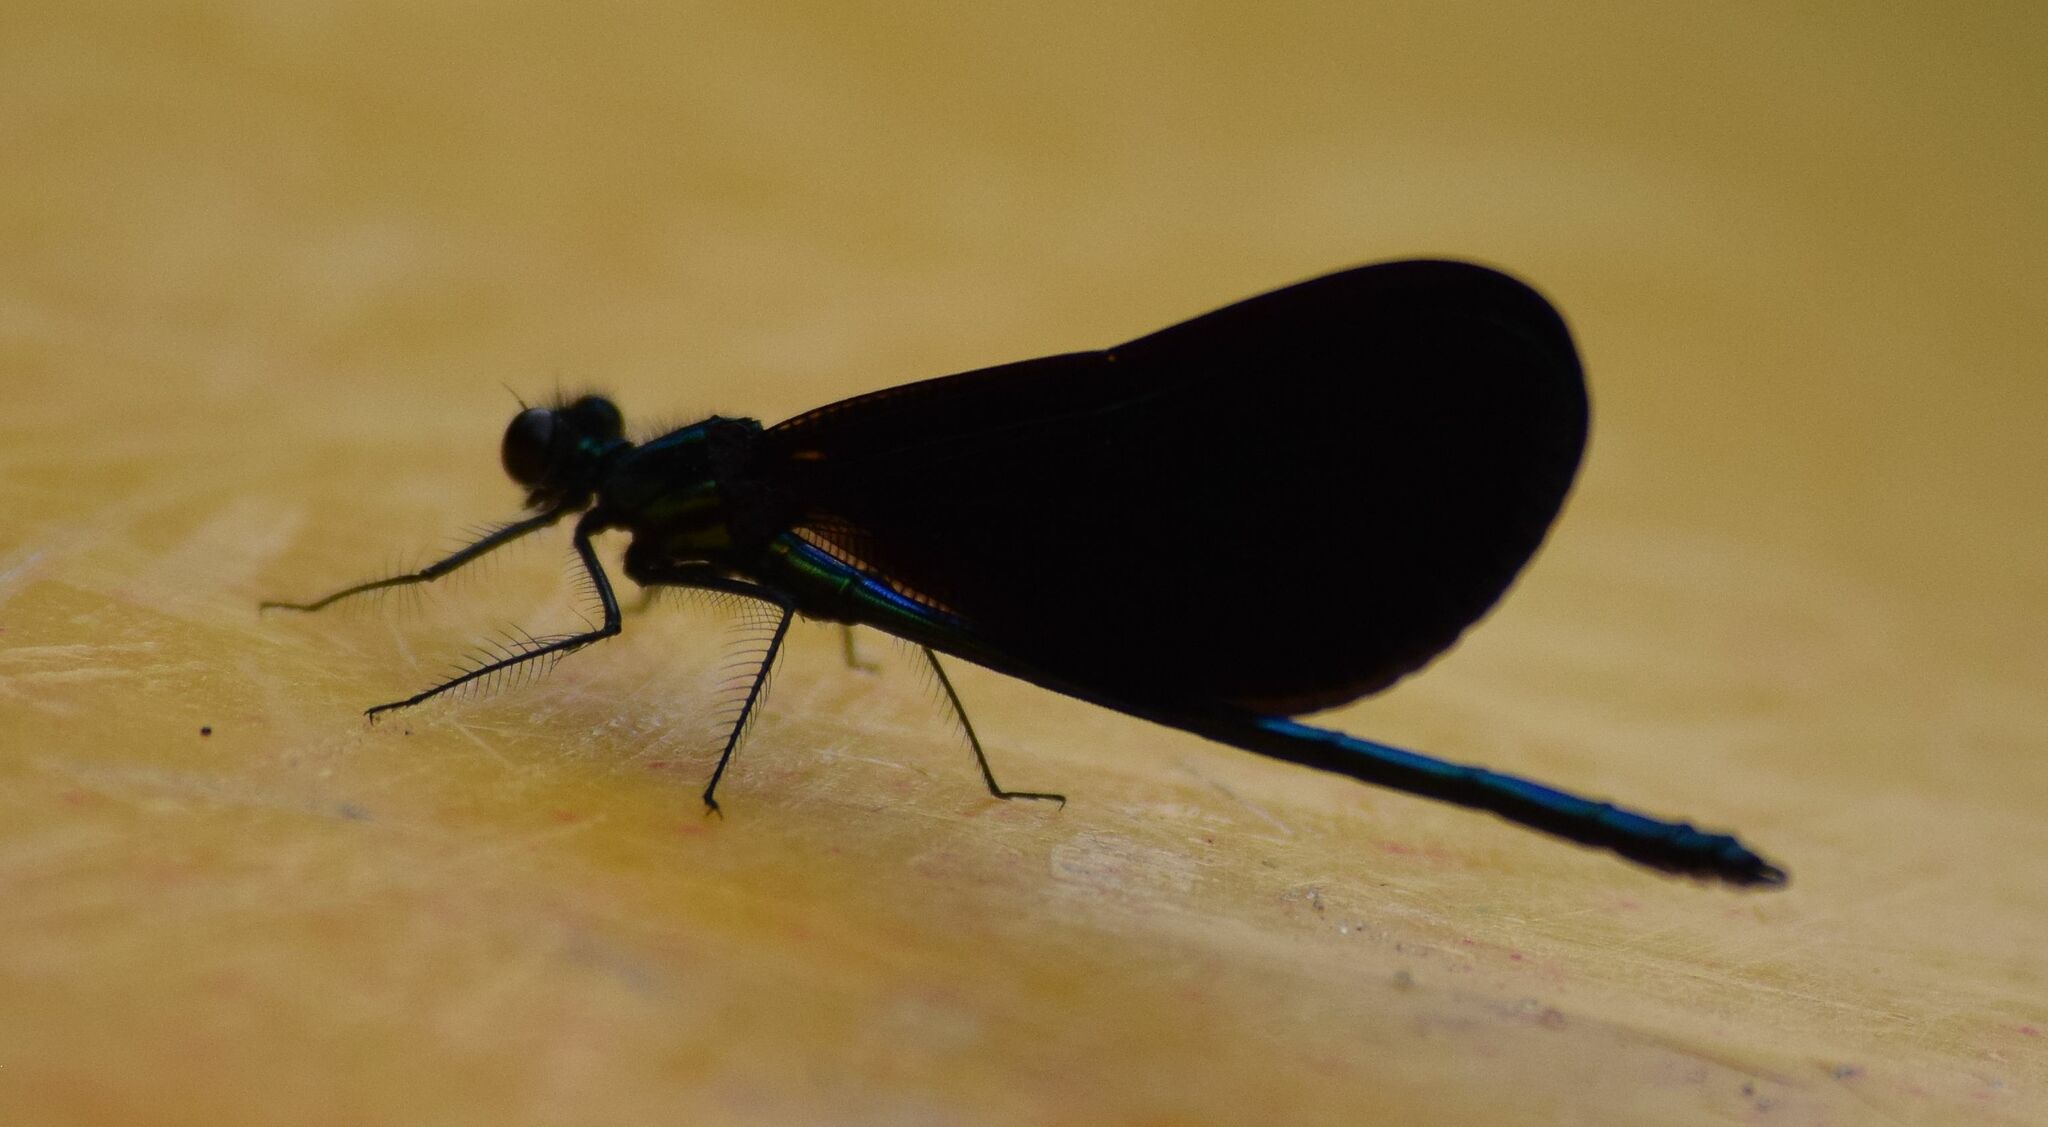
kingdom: Animalia
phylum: Arthropoda
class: Insecta
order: Odonata
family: Calopterygidae
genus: Calopteryx
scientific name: Calopteryx maculata
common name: Ebony jewelwing
